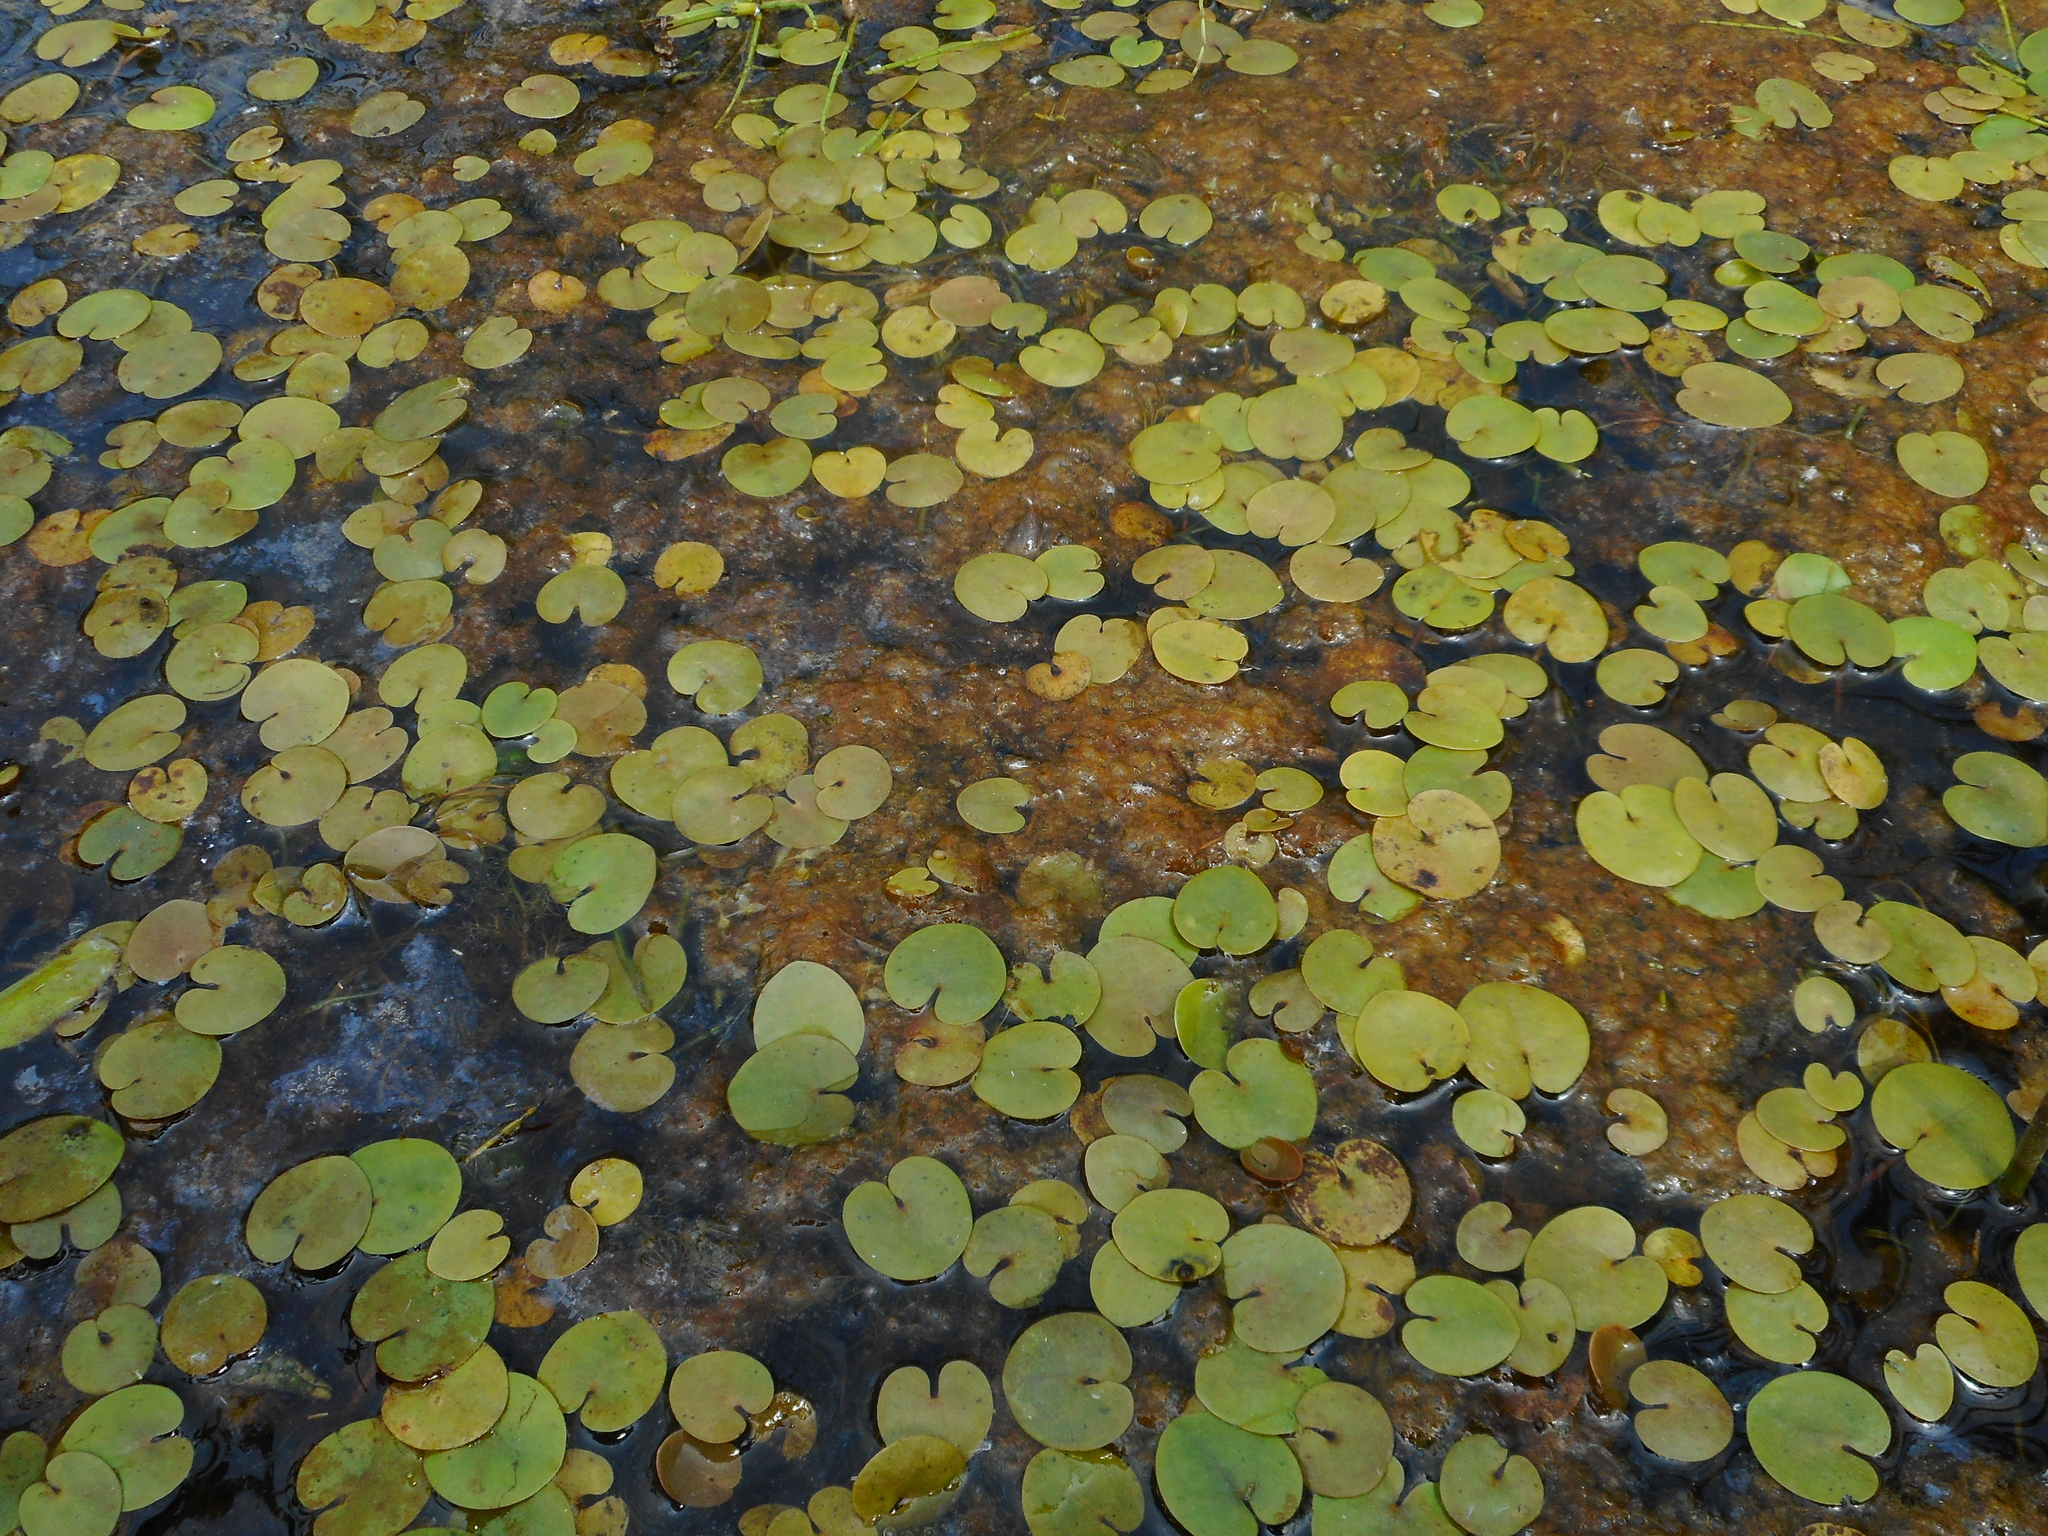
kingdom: Plantae
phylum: Tracheophyta
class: Liliopsida
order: Alismatales
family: Hydrocharitaceae
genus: Hydrocharis
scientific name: Hydrocharis morsus-ranae
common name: Frogbit
